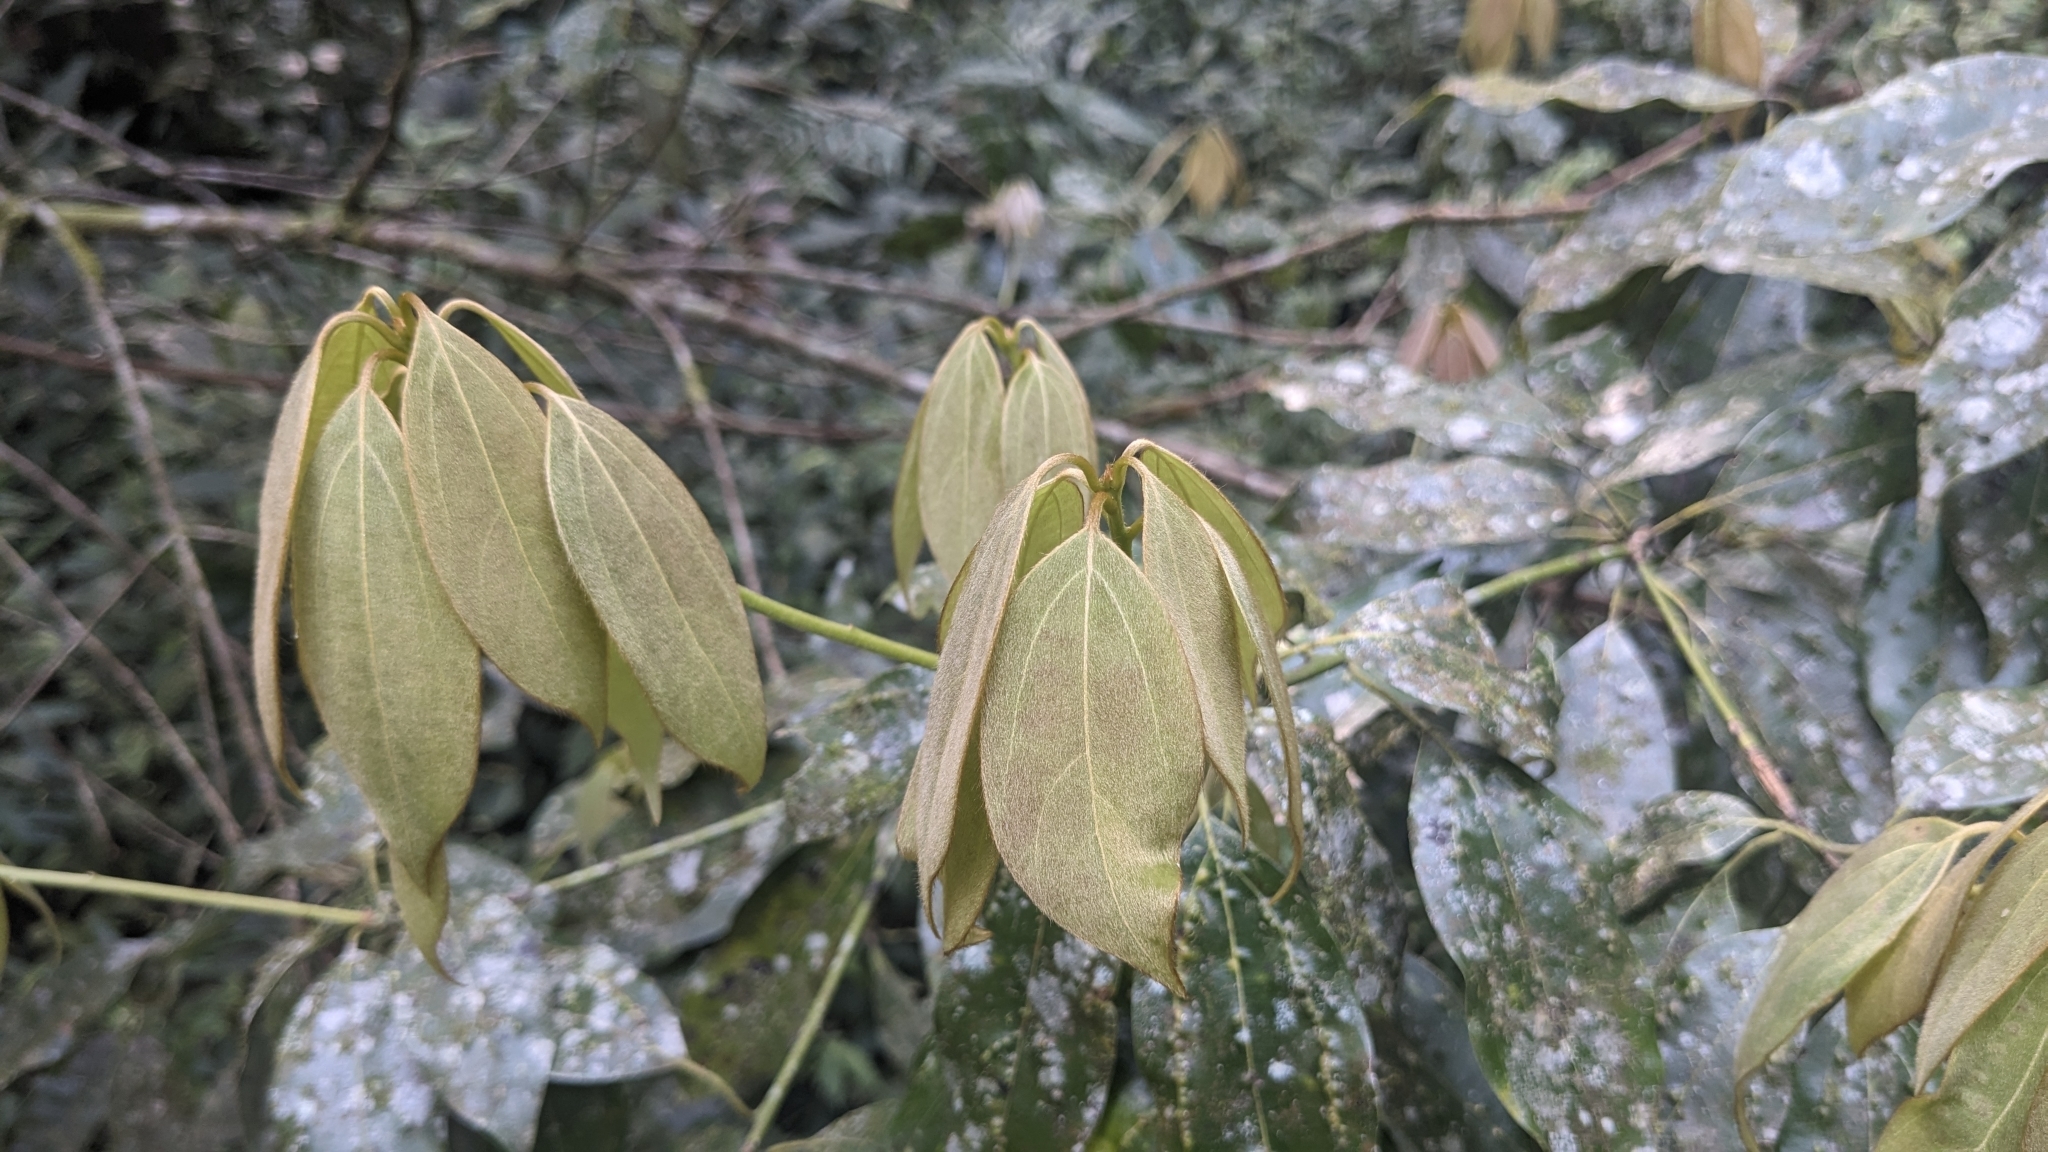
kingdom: Plantae
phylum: Tracheophyta
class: Magnoliopsida
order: Laurales
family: Lauraceae
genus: Neolitsea
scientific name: Neolitsea aciculata
